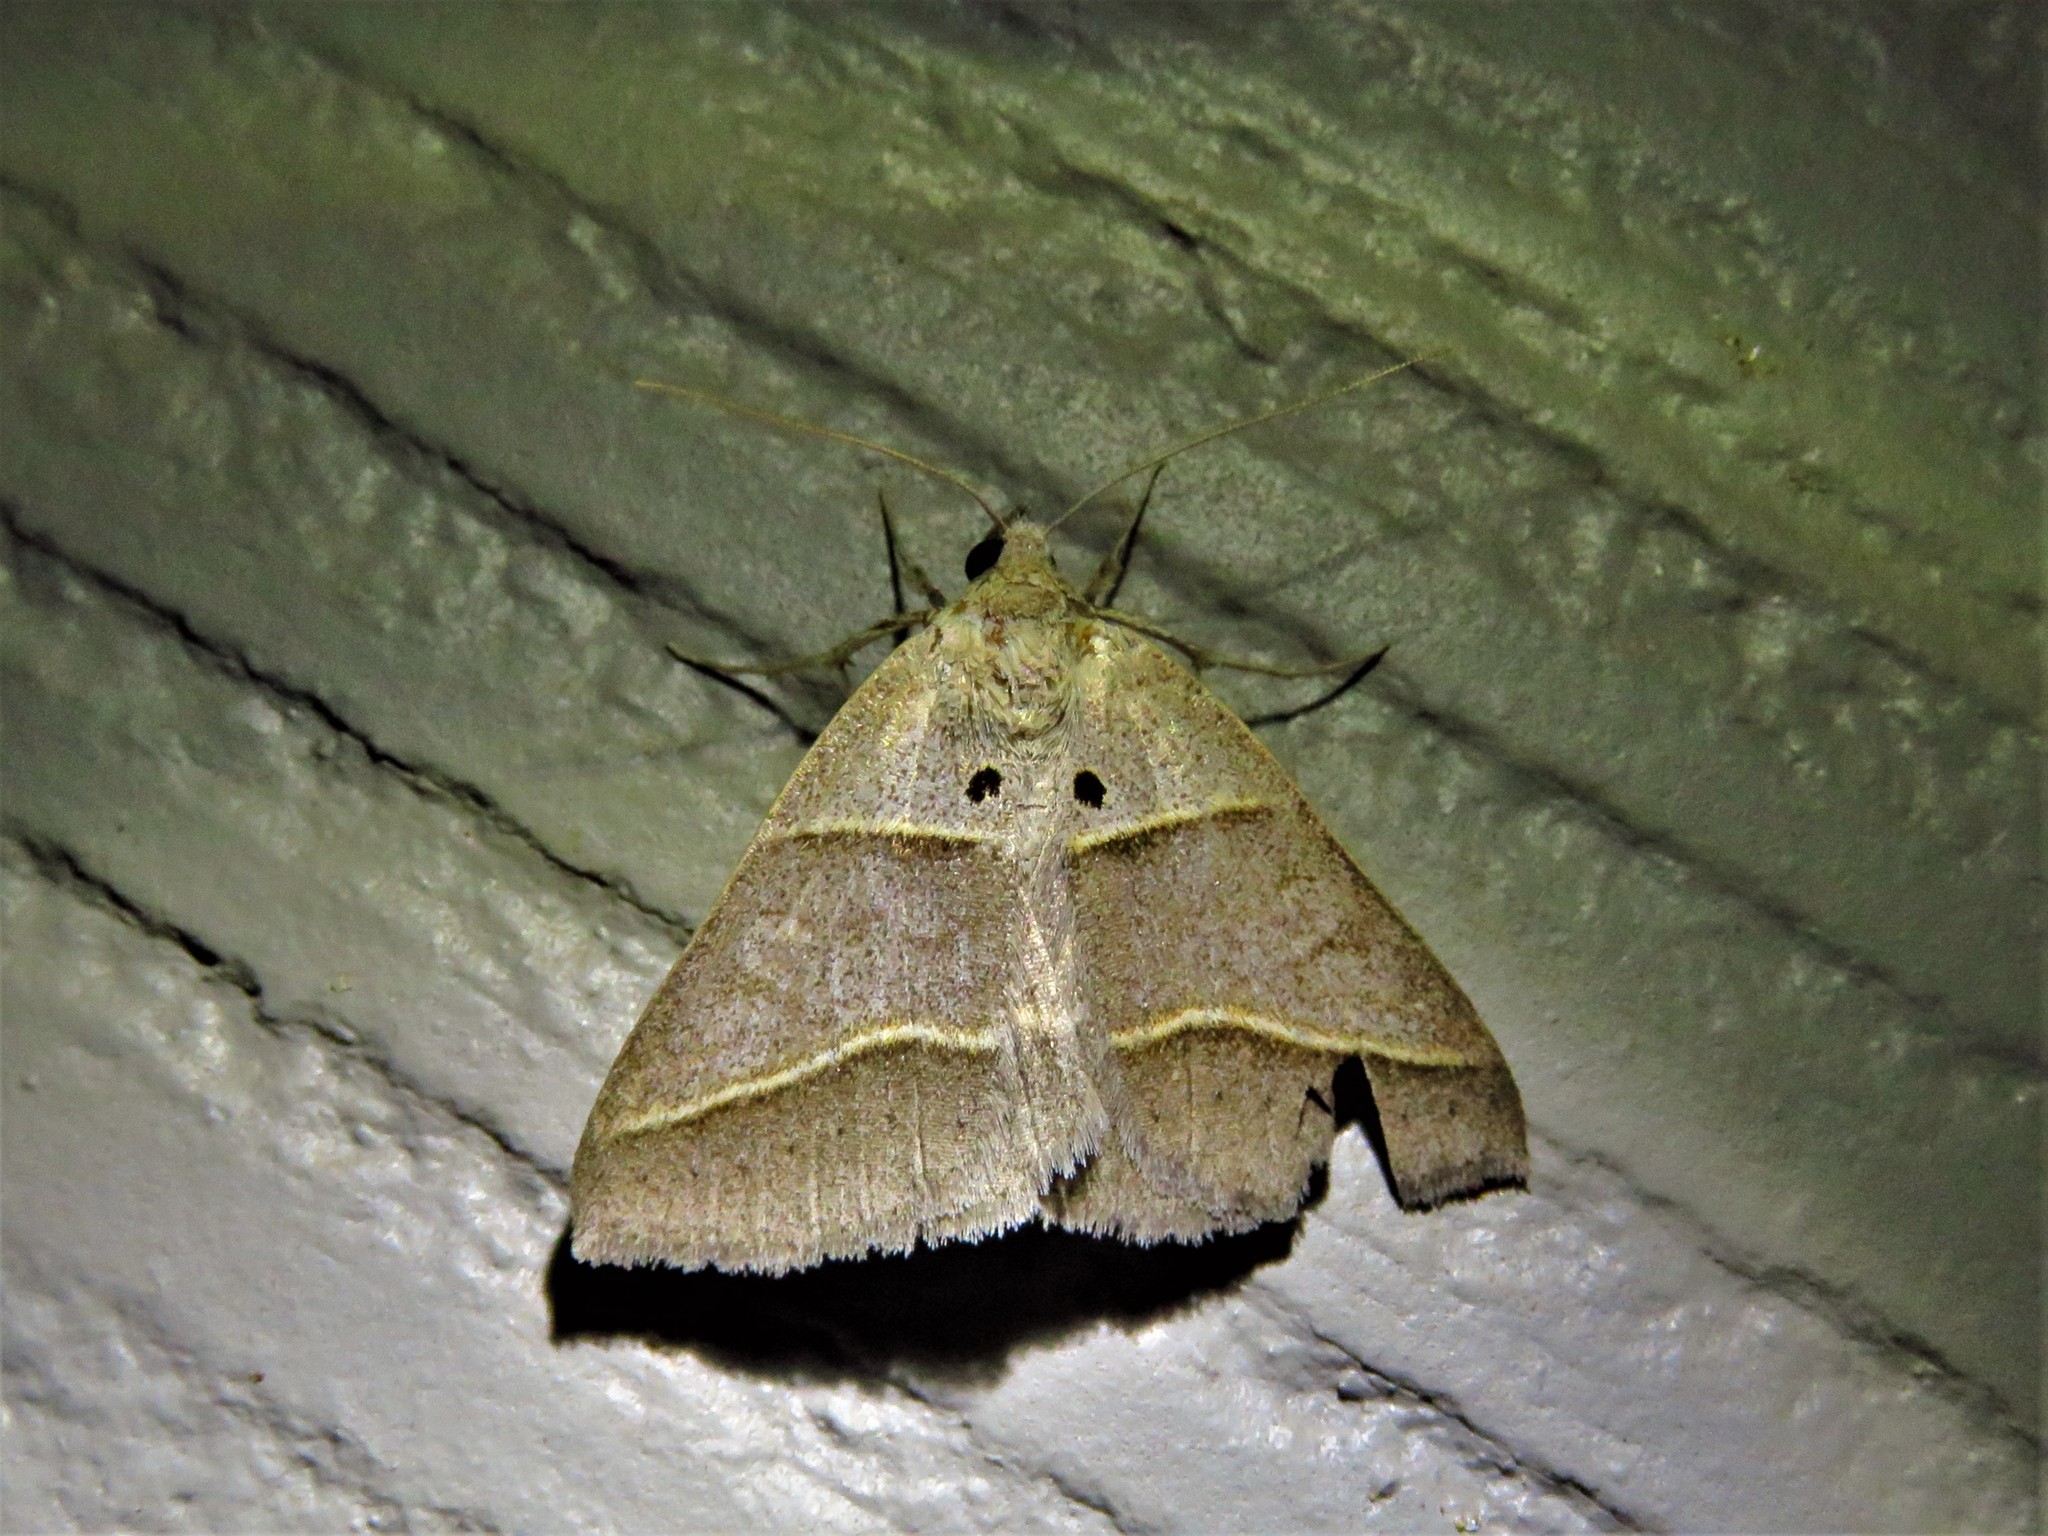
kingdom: Animalia
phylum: Arthropoda
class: Insecta
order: Lepidoptera
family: Erebidae
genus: Ptichodis
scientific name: Ptichodis herbarum
